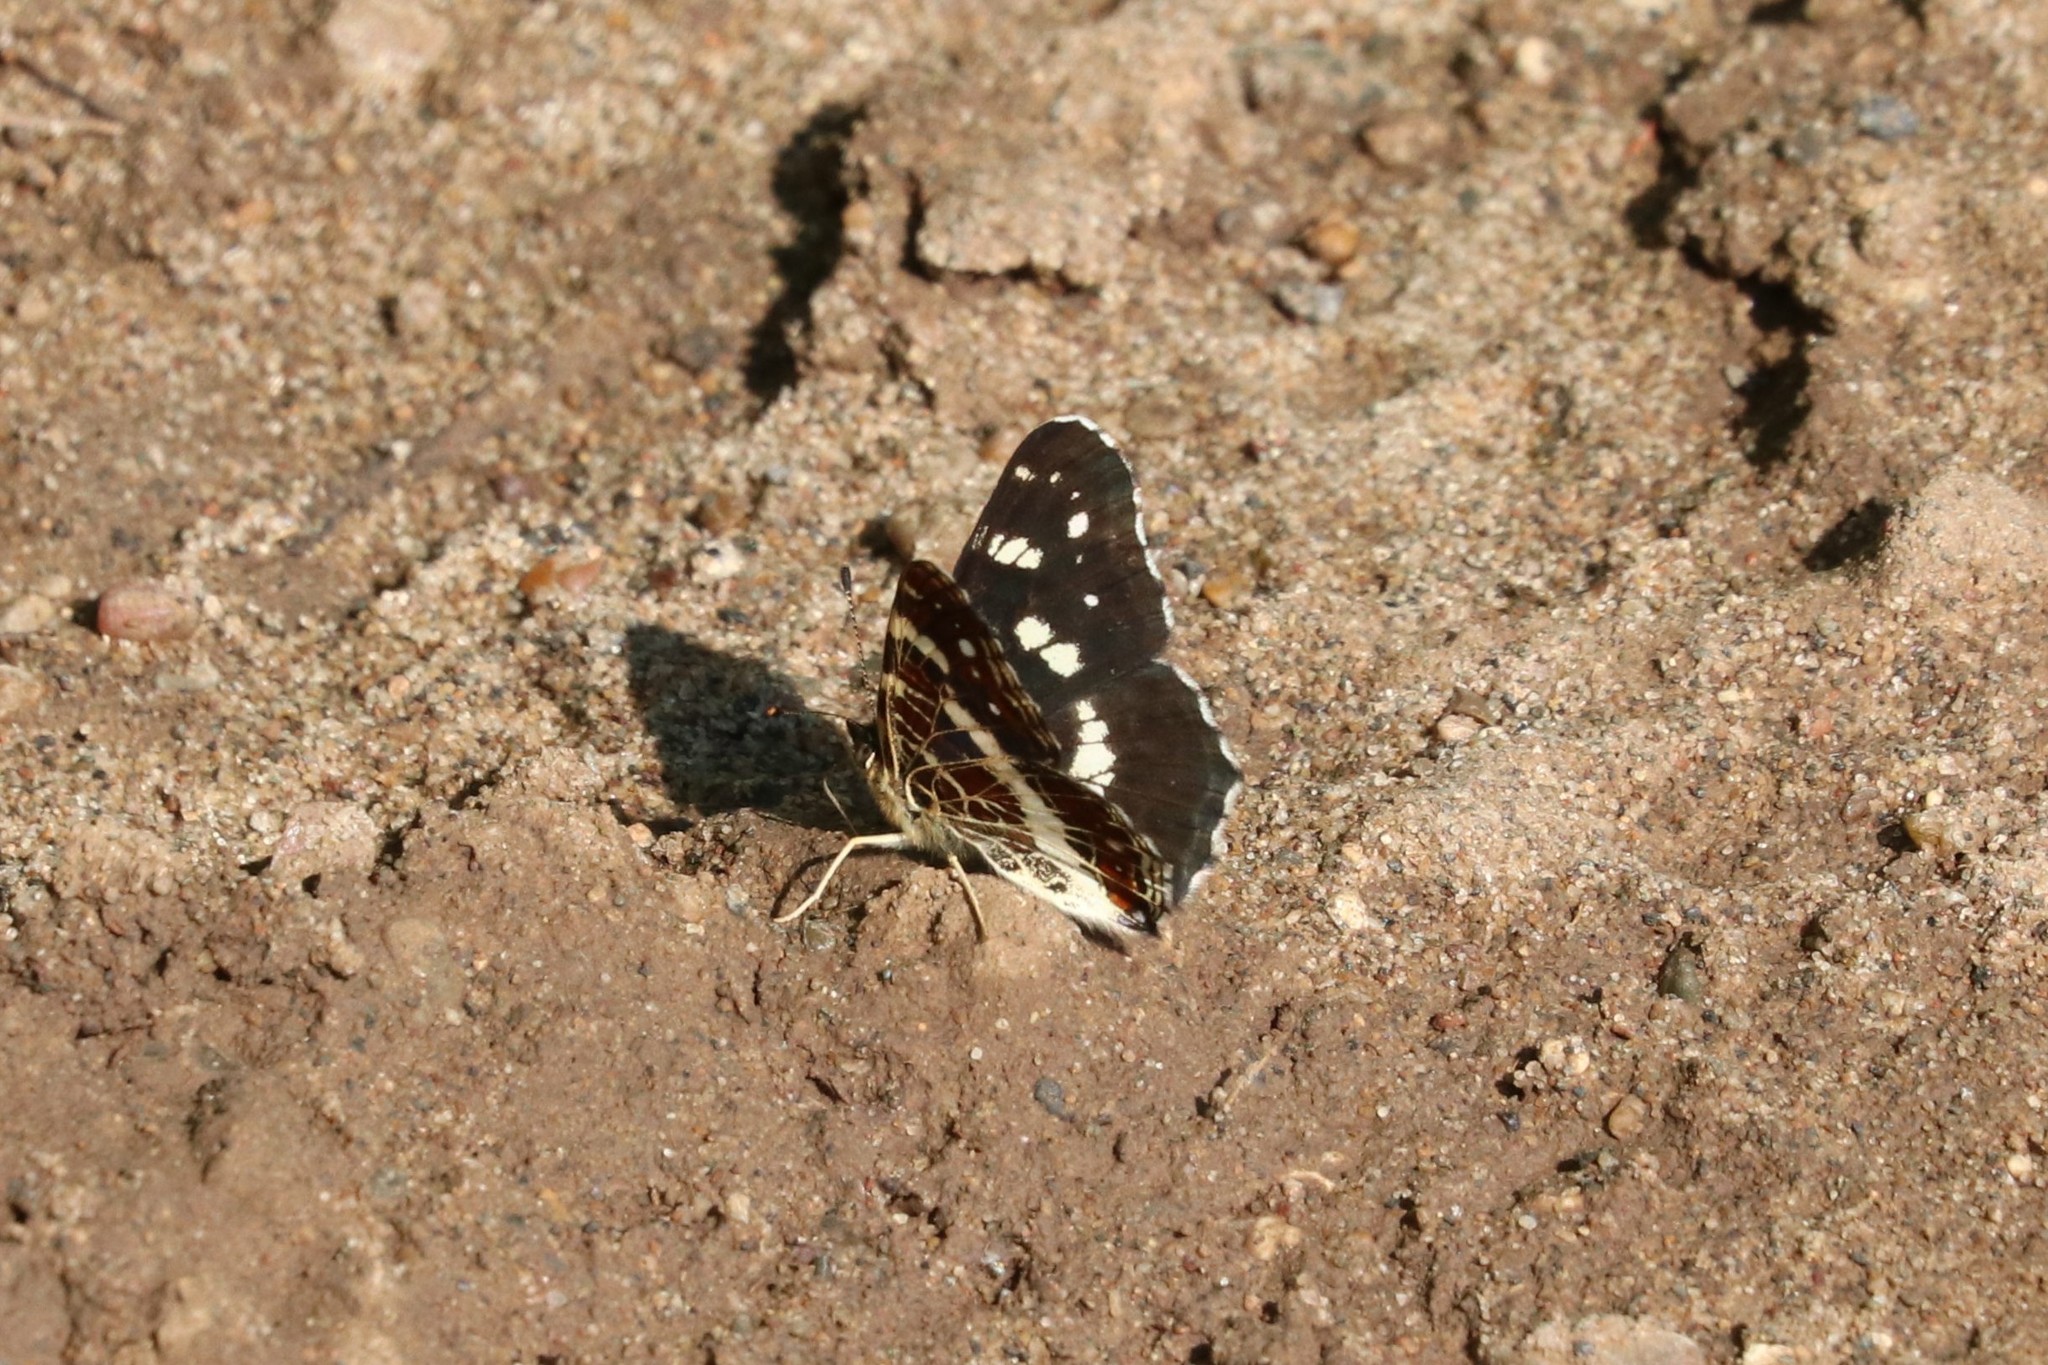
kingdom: Animalia
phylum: Arthropoda
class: Insecta
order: Lepidoptera
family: Nymphalidae
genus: Araschnia
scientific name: Araschnia levana
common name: Map butterfly
